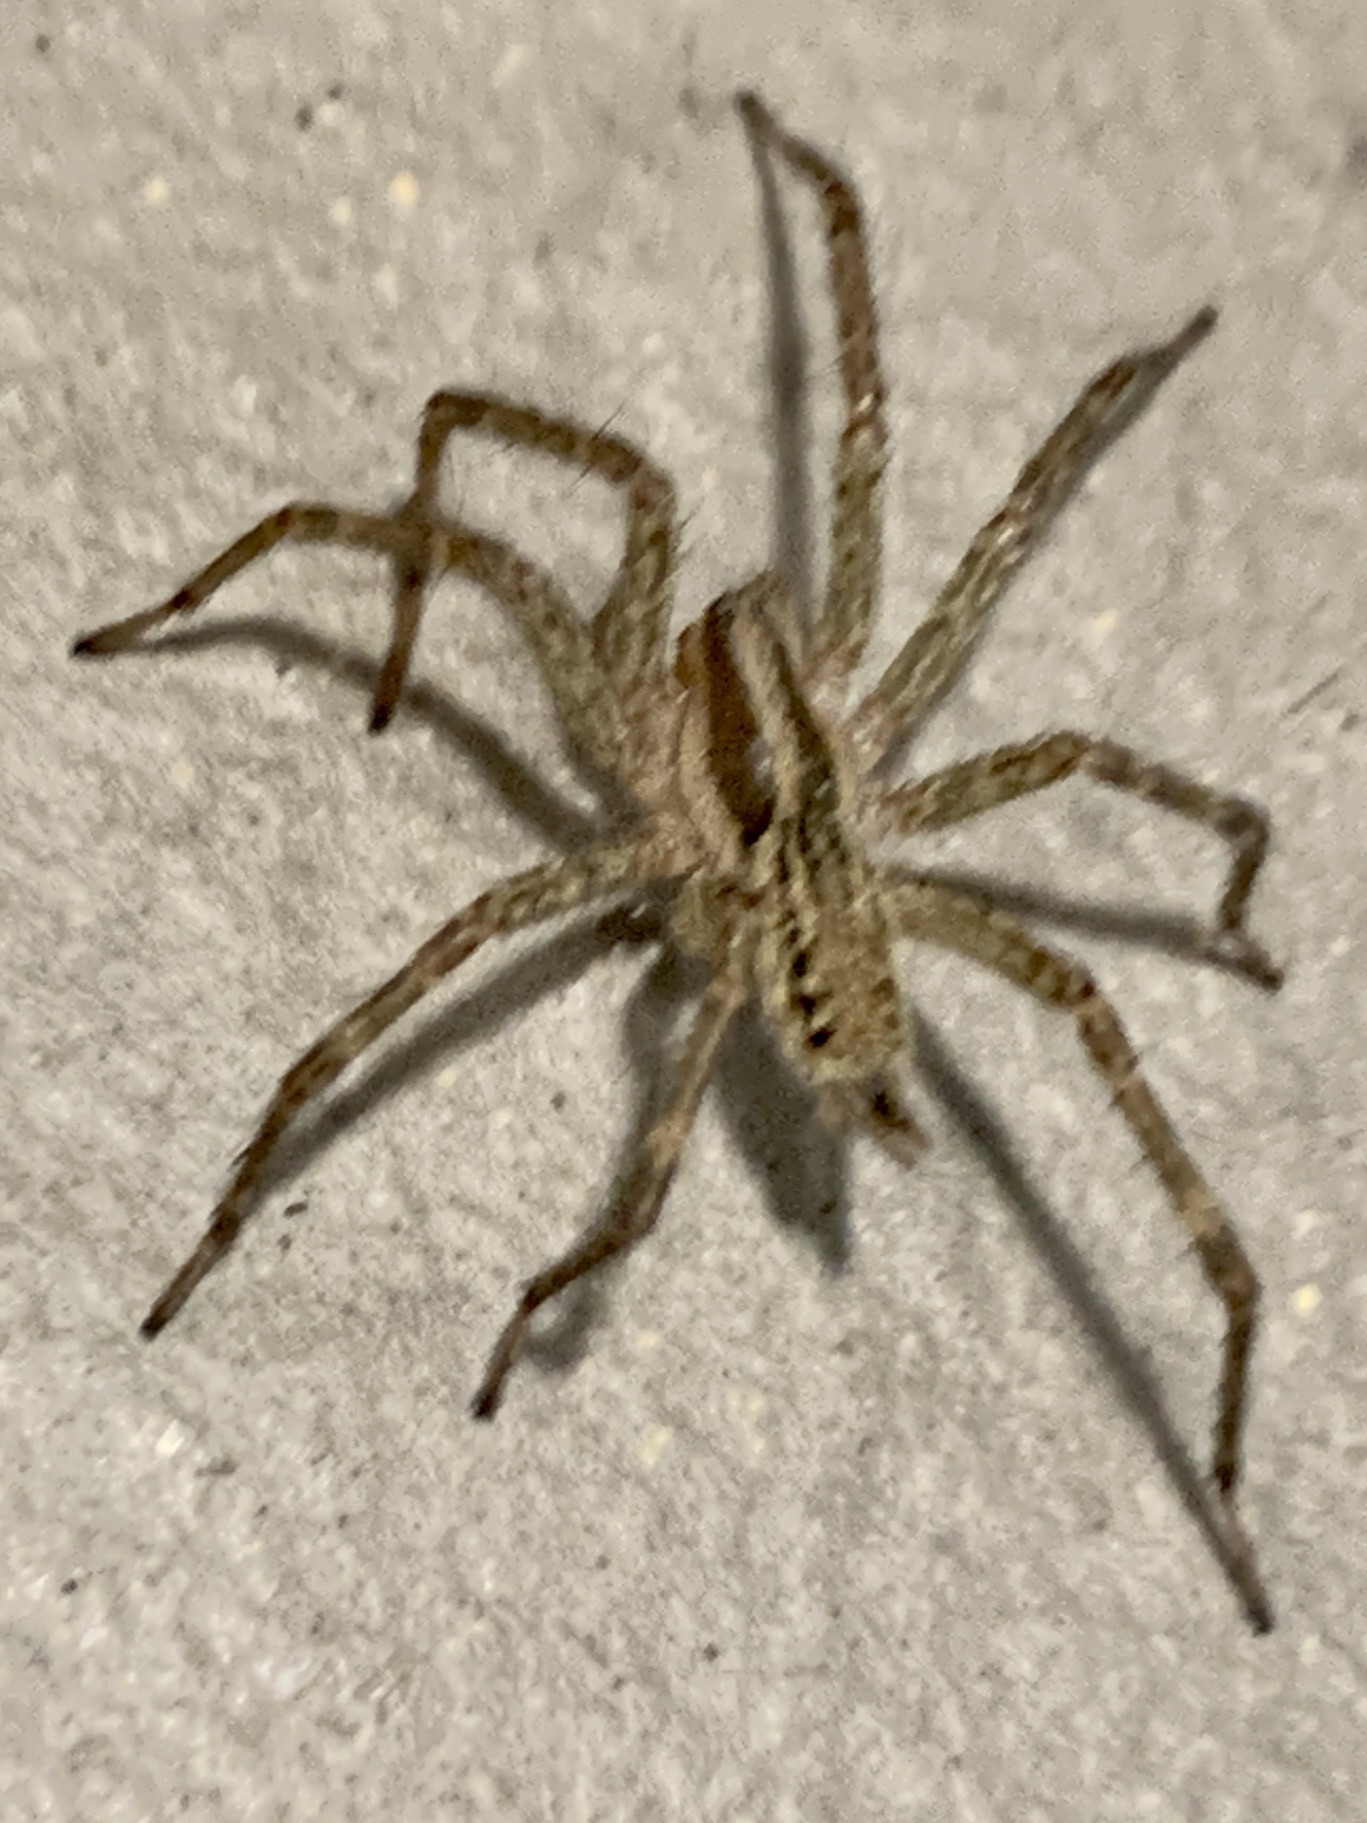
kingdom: Animalia
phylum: Arthropoda
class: Arachnida
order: Araneae
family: Agelenidae
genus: Agelenopsis
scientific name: Agelenopsis
